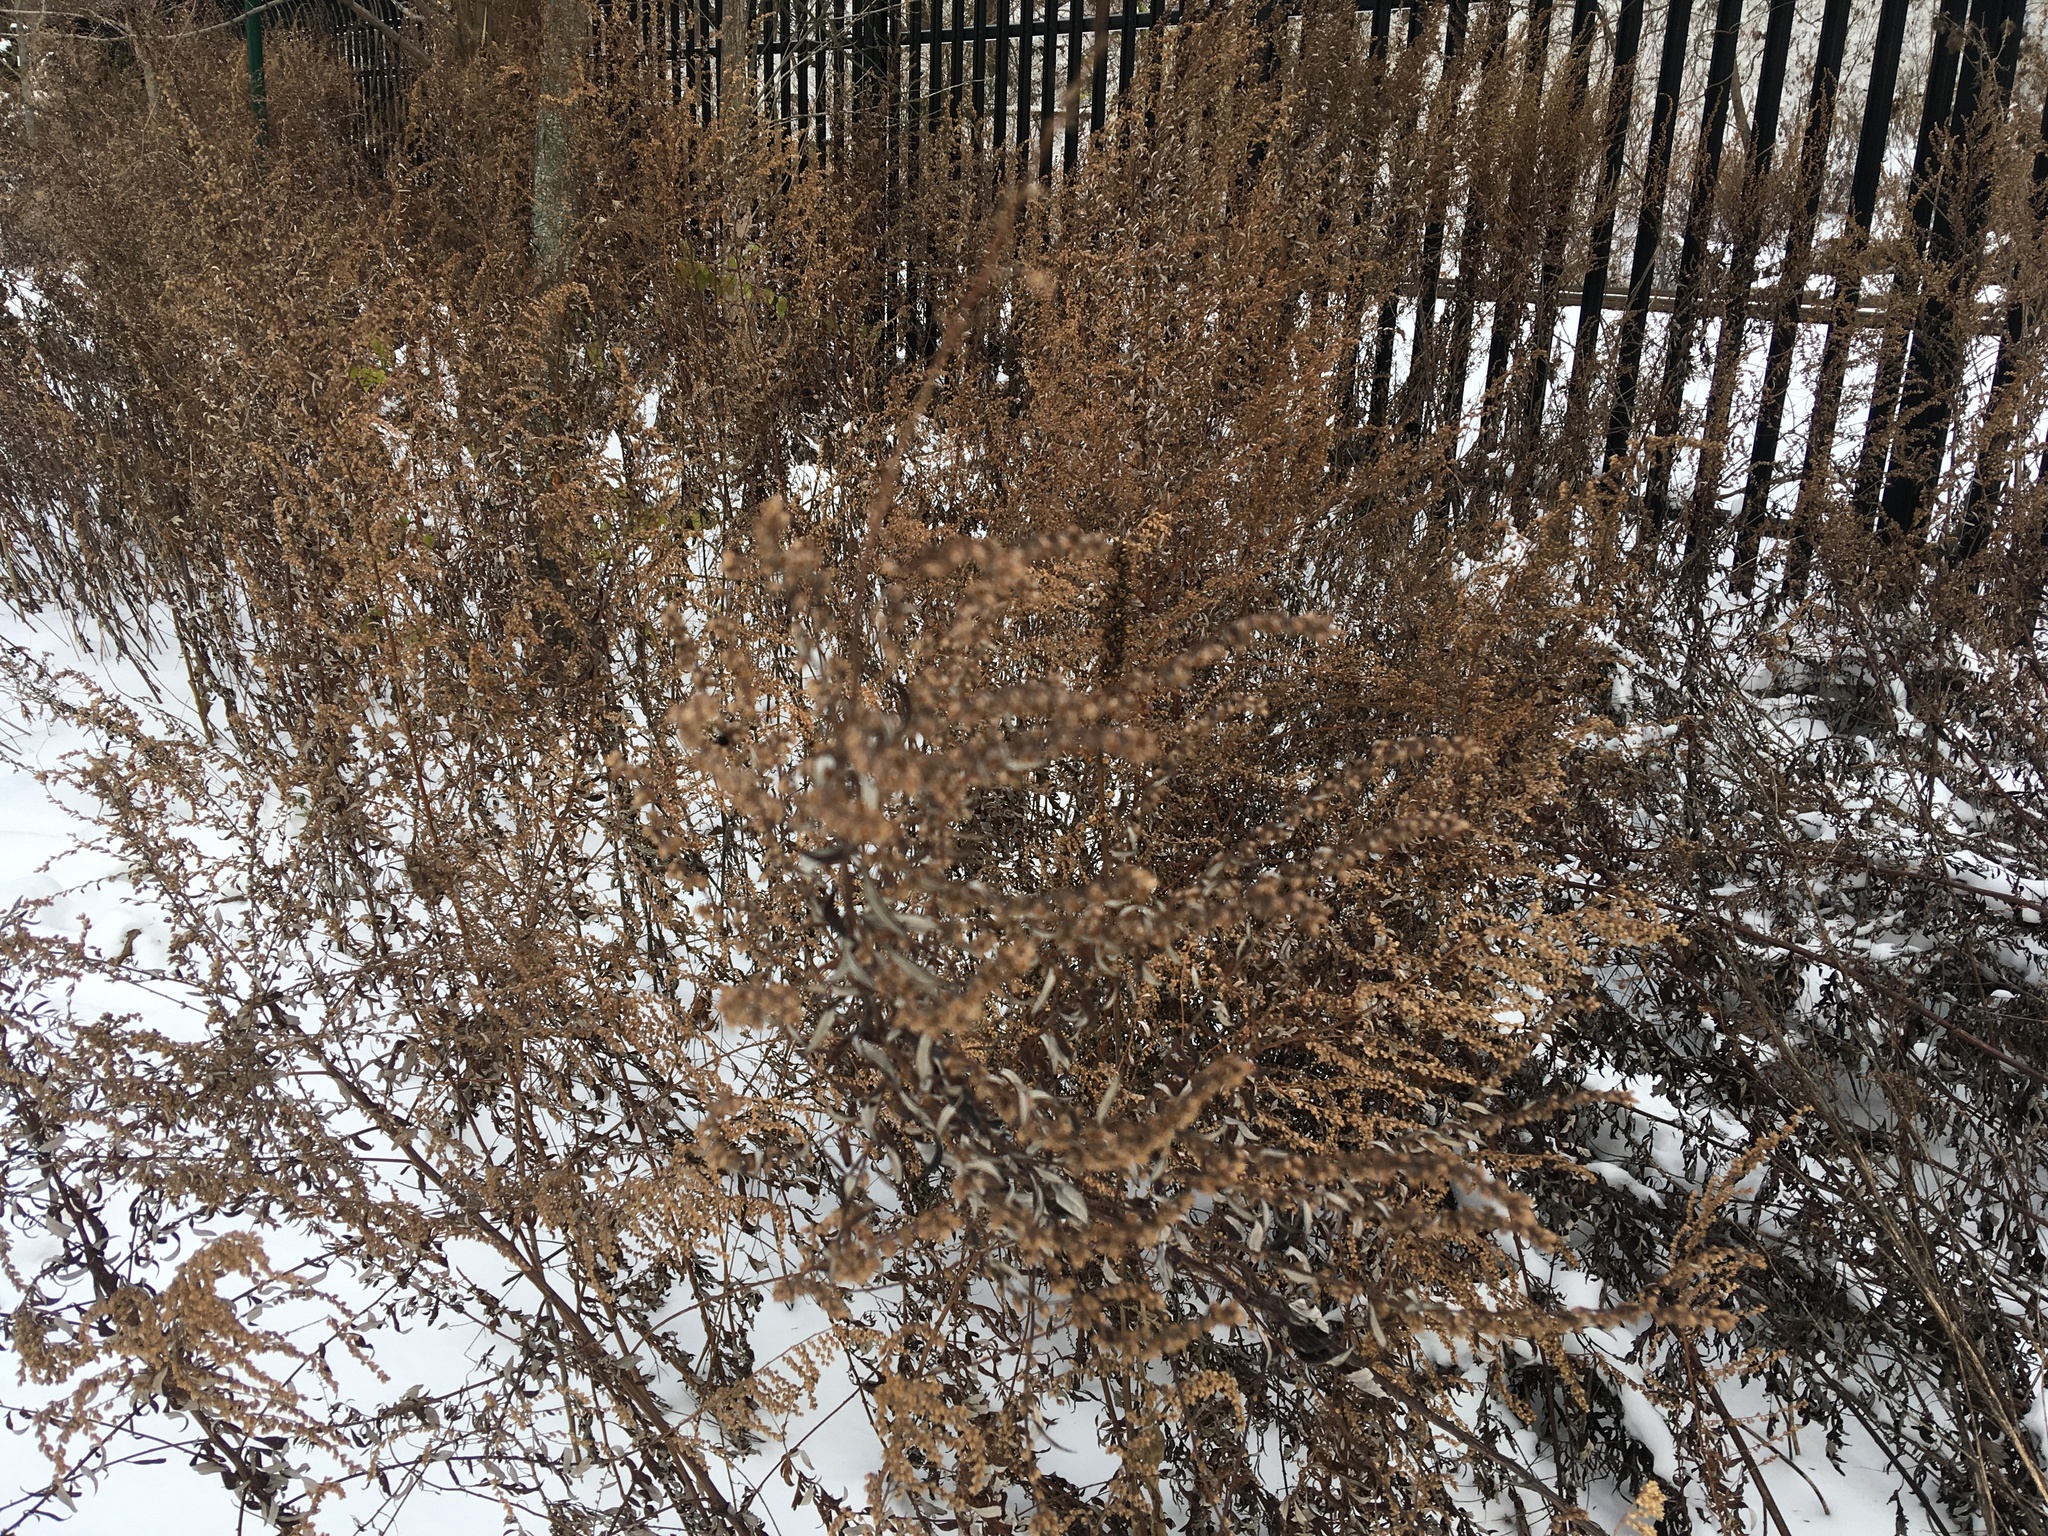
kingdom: Plantae
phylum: Tracheophyta
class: Magnoliopsida
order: Asterales
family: Asteraceae
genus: Artemisia
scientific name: Artemisia vulgaris
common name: Mugwort
